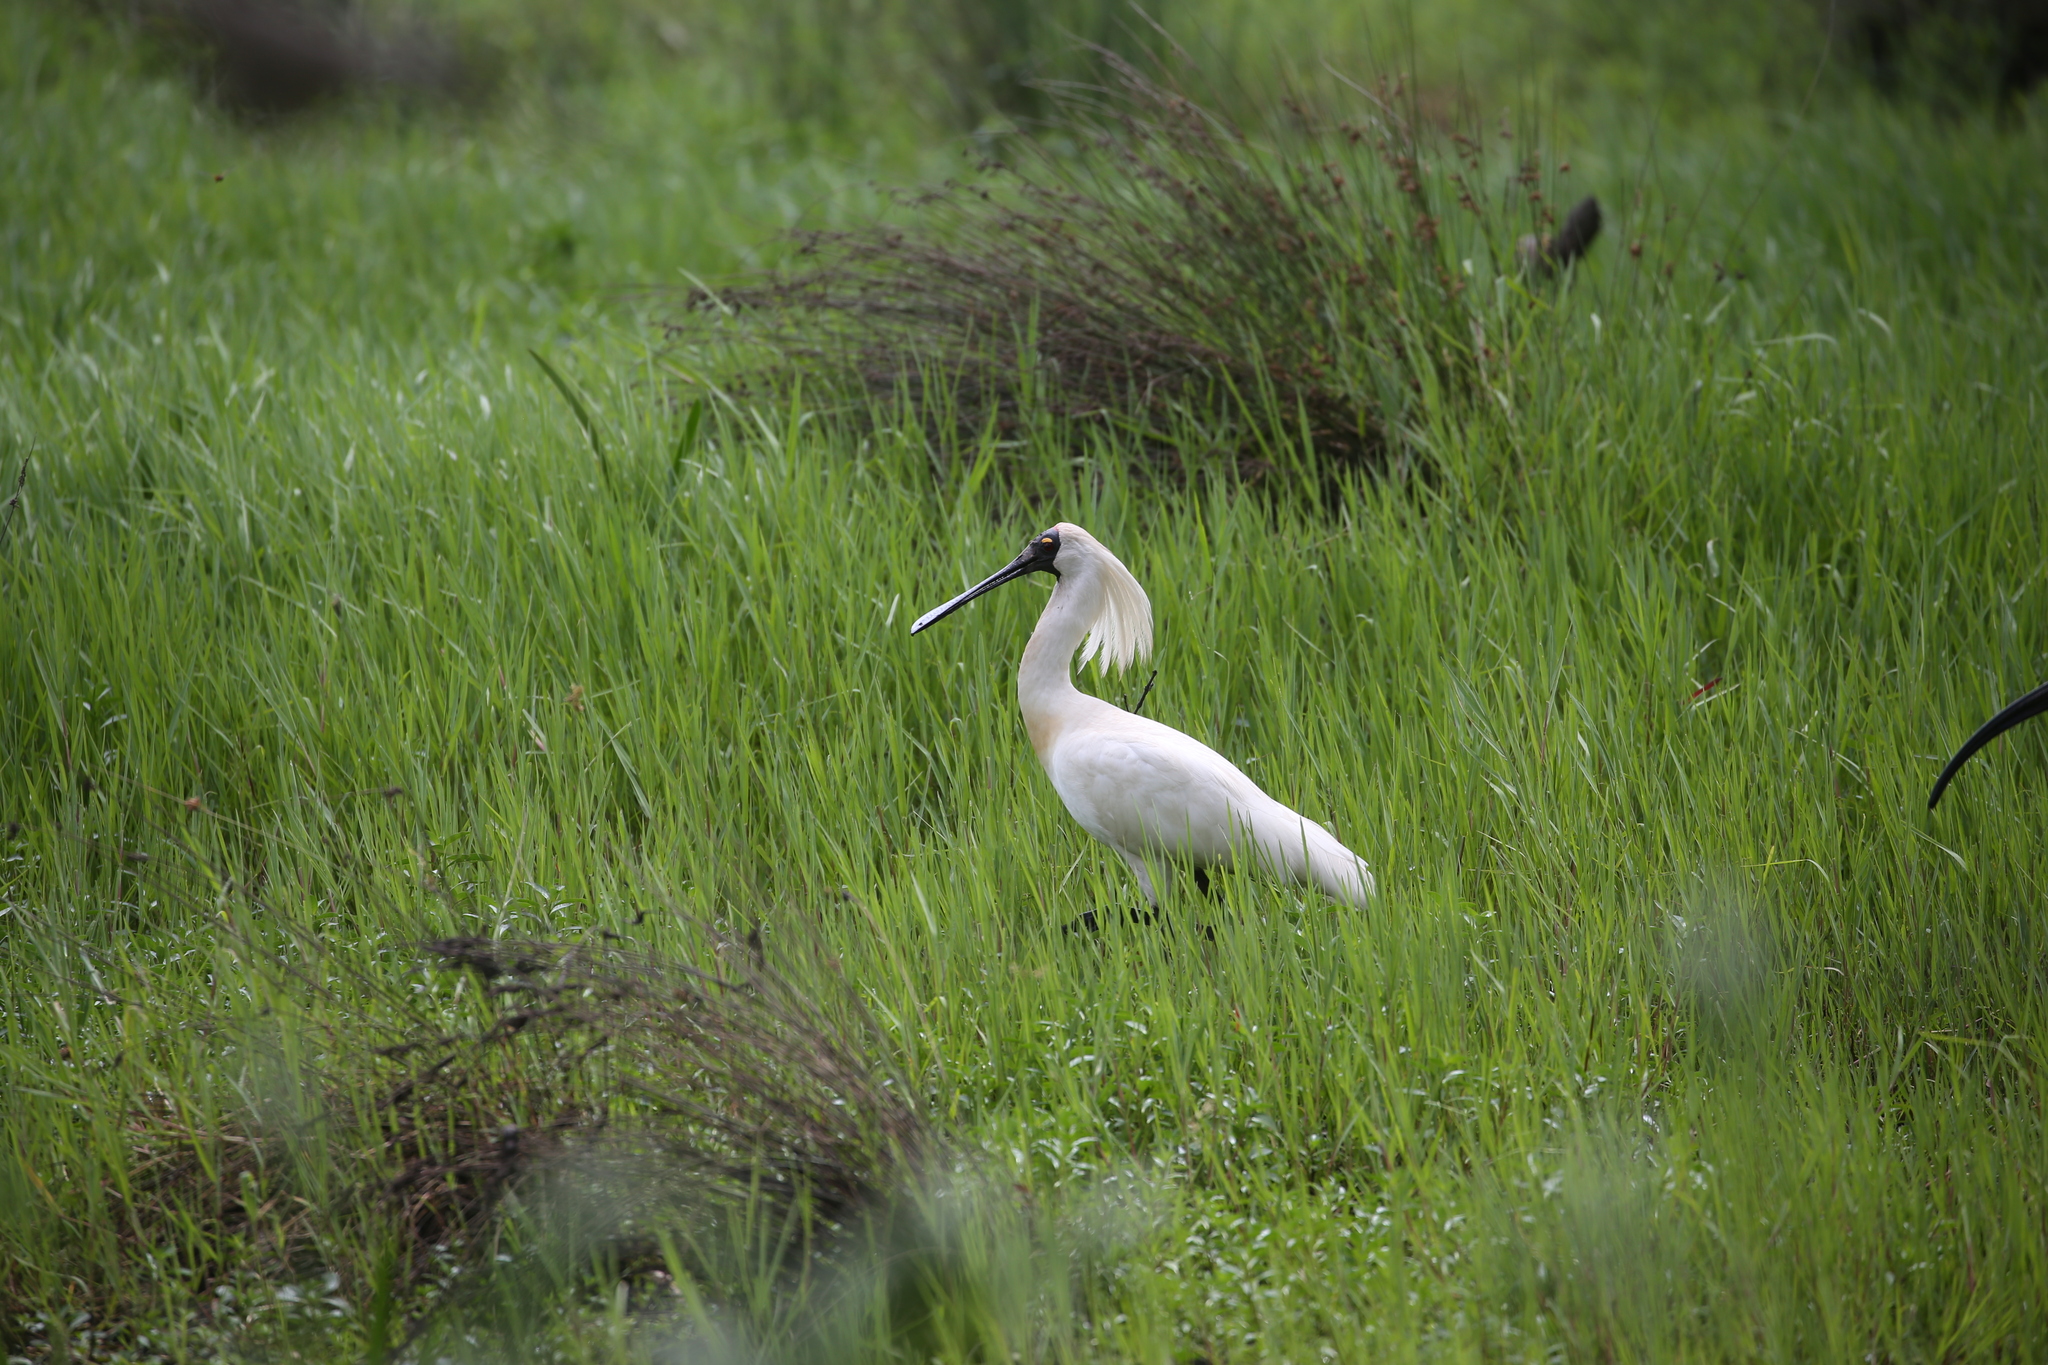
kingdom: Animalia
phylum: Chordata
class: Aves
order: Pelecaniformes
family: Threskiornithidae
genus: Platalea
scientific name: Platalea regia
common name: Royal spoonbill
